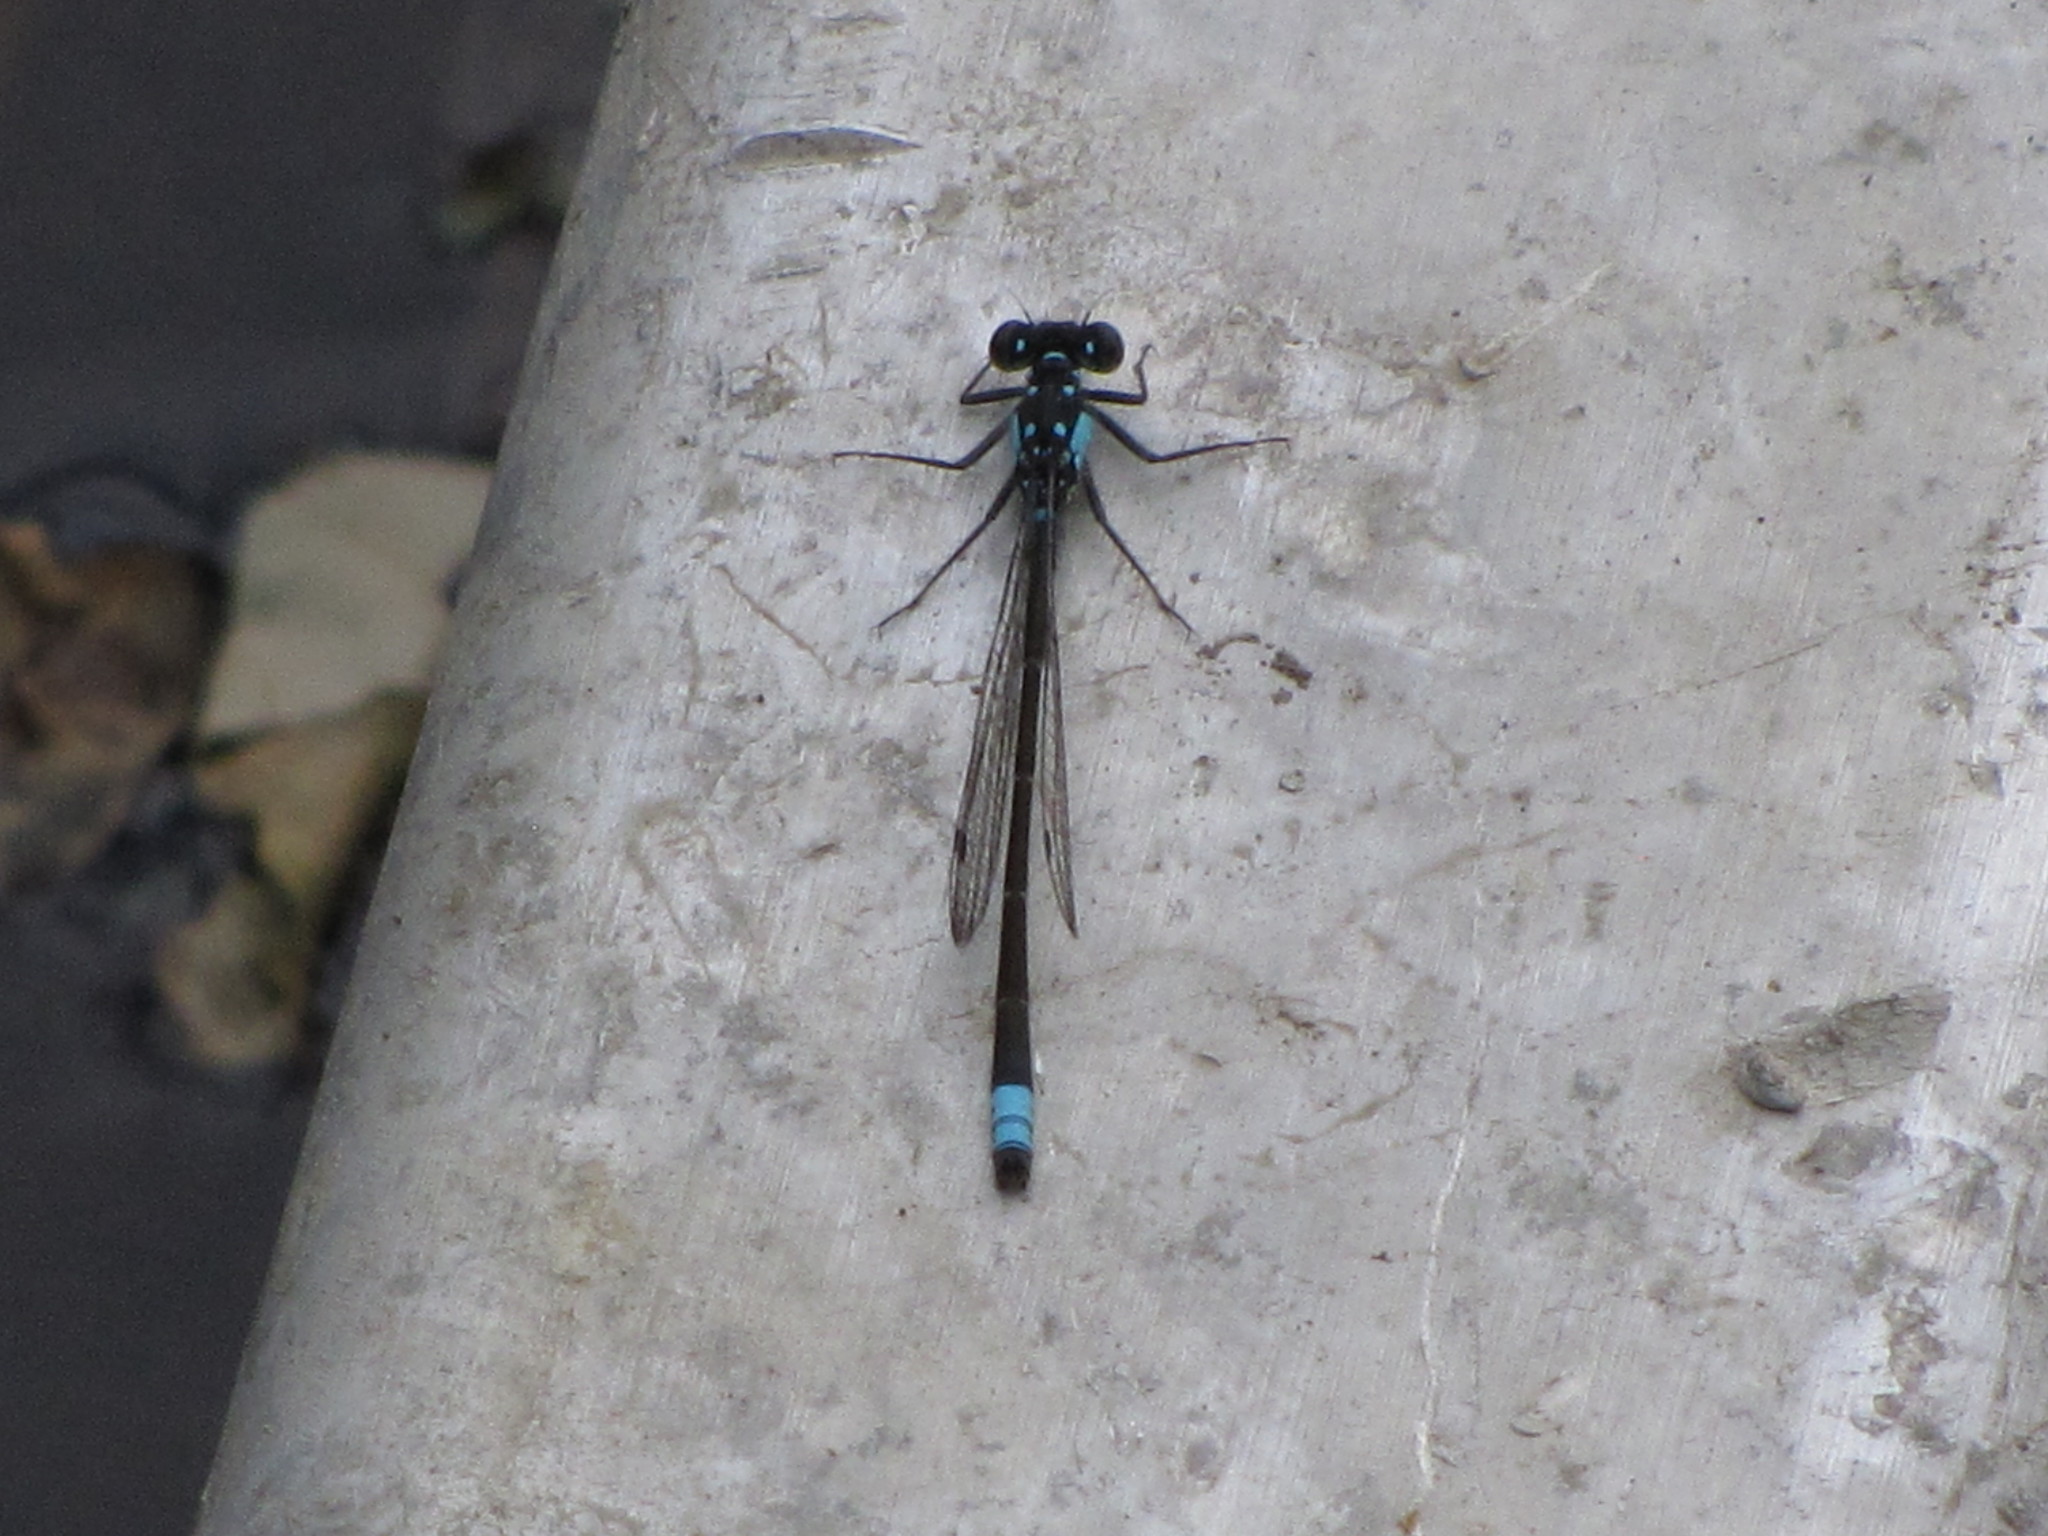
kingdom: Animalia
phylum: Arthropoda
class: Insecta
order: Odonata
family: Coenagrionidae
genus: Ischnura
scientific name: Ischnura cervula
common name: Pacific forktail
